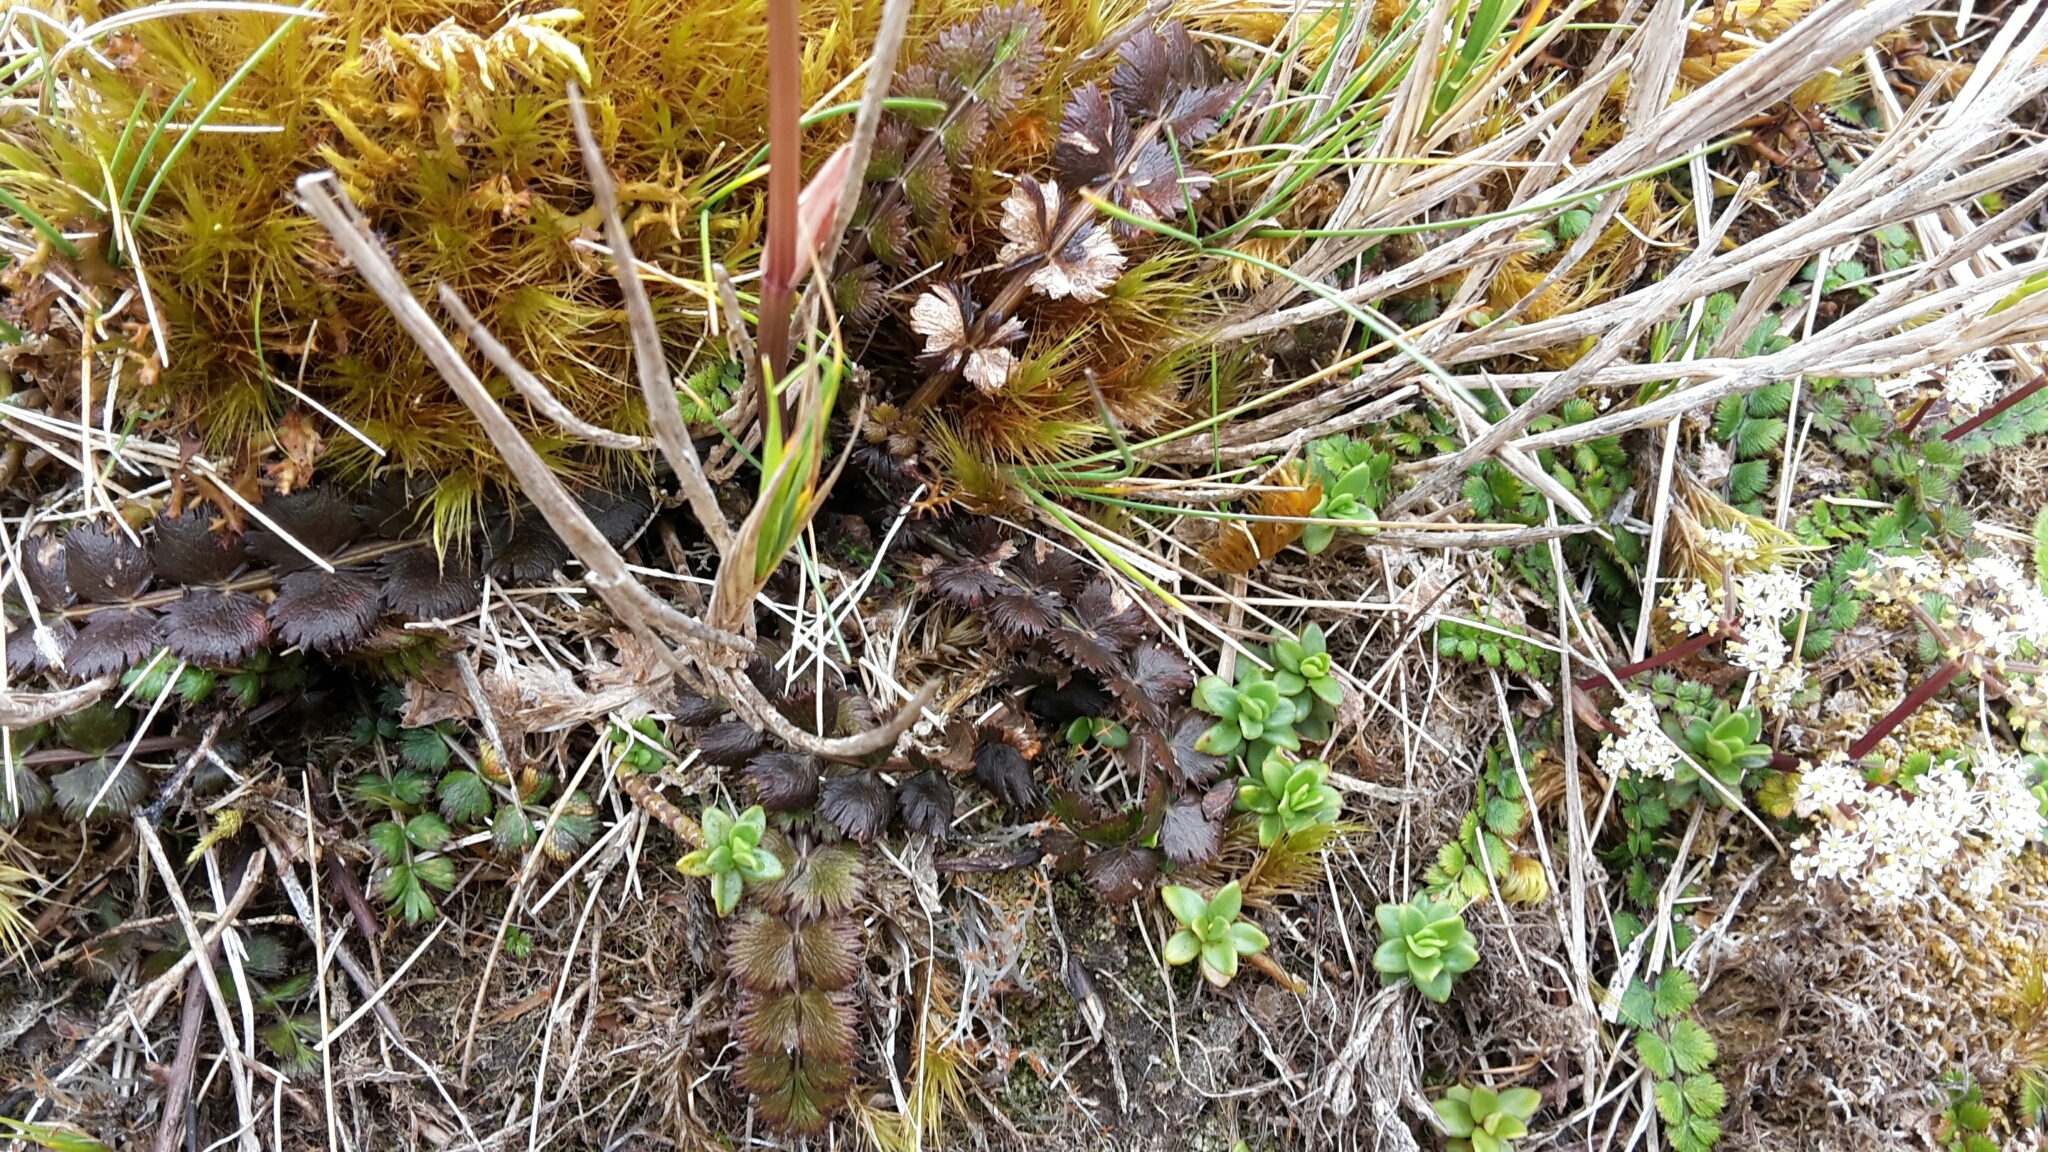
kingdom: Plantae
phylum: Tracheophyta
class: Magnoliopsida
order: Apiales
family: Apiaceae
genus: Anisotome
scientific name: Anisotome aromatica
